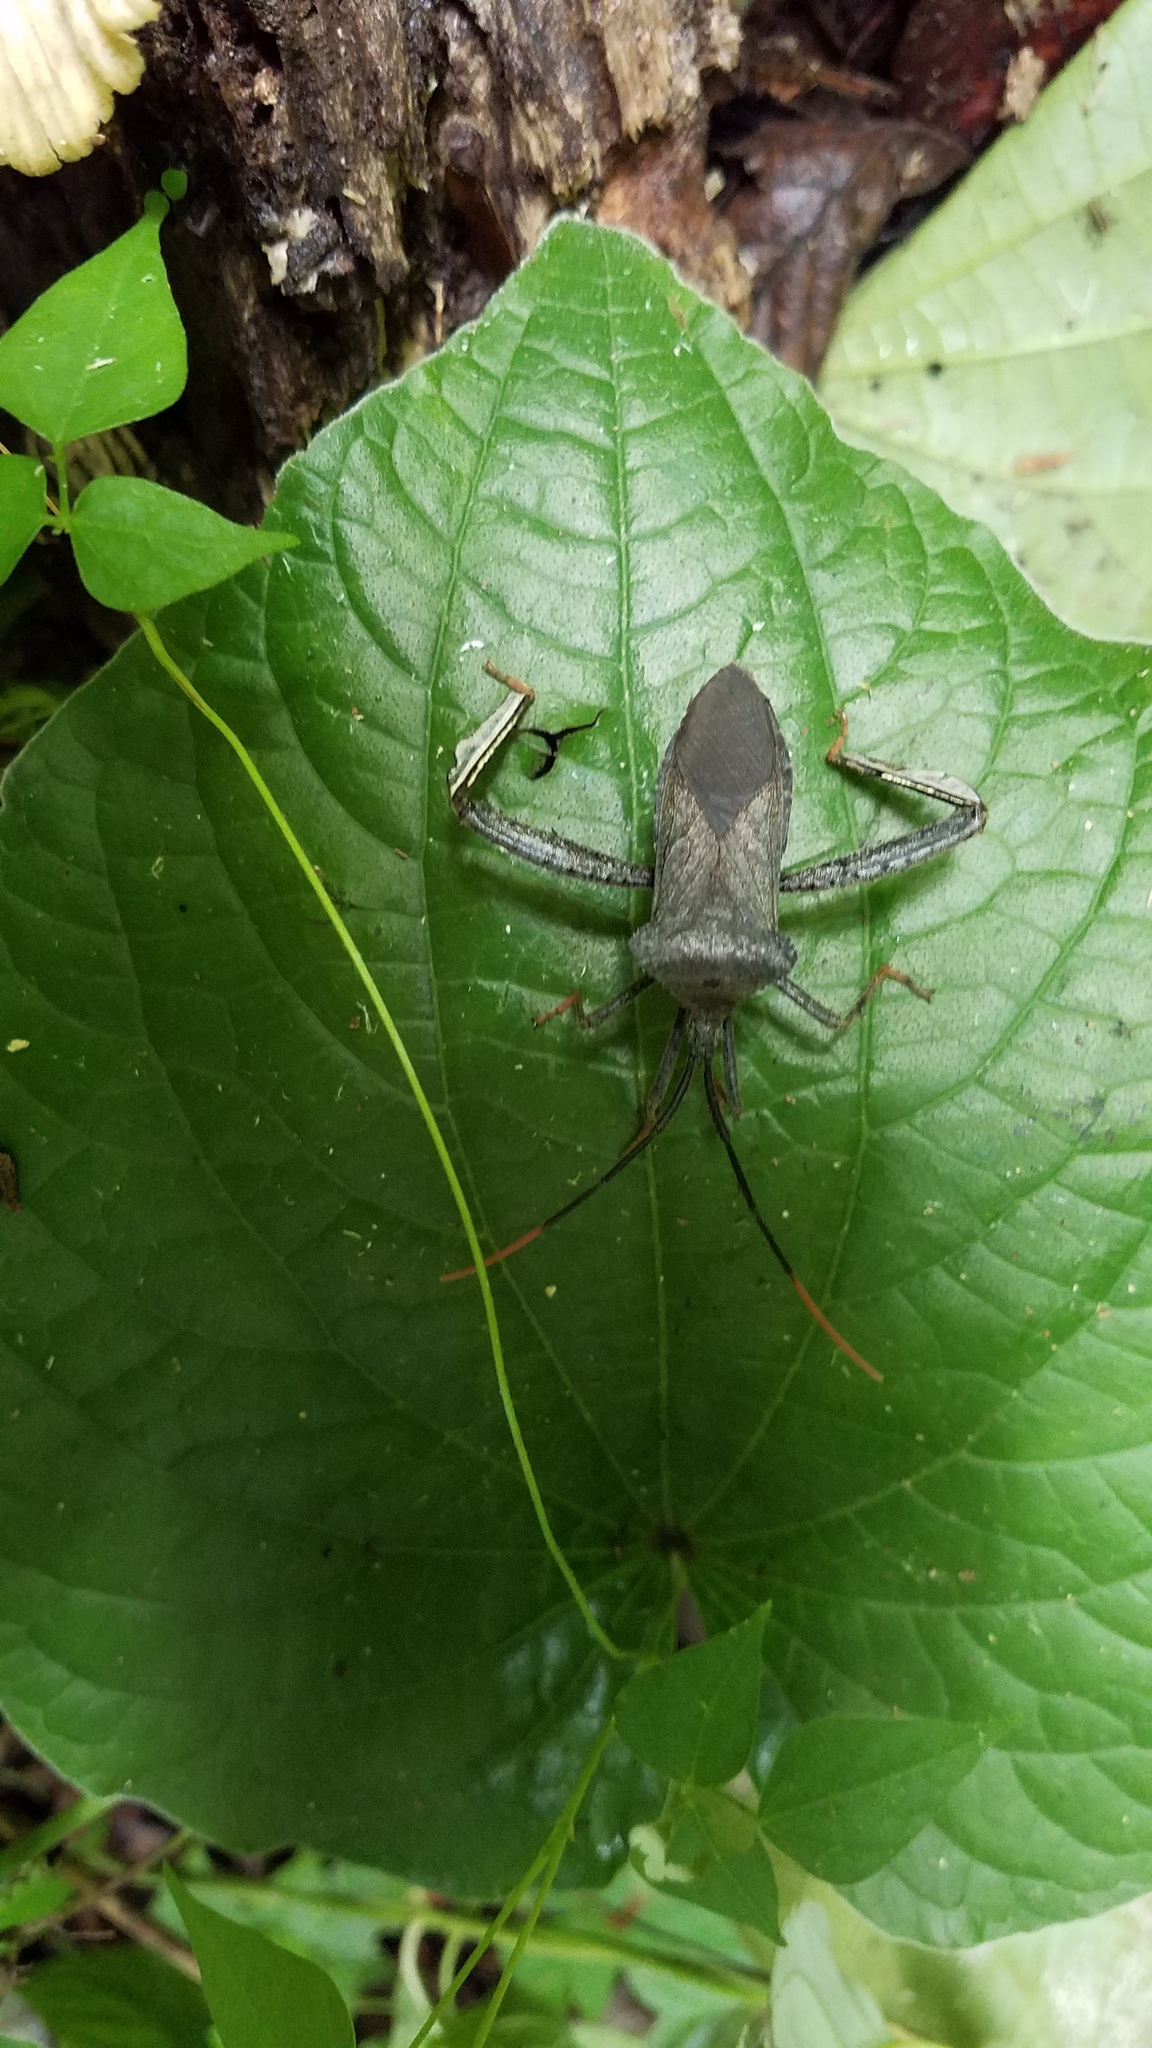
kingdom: Animalia
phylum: Arthropoda
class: Insecta
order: Hemiptera
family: Coreidae
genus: Acanthocephala
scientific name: Acanthocephala alata
